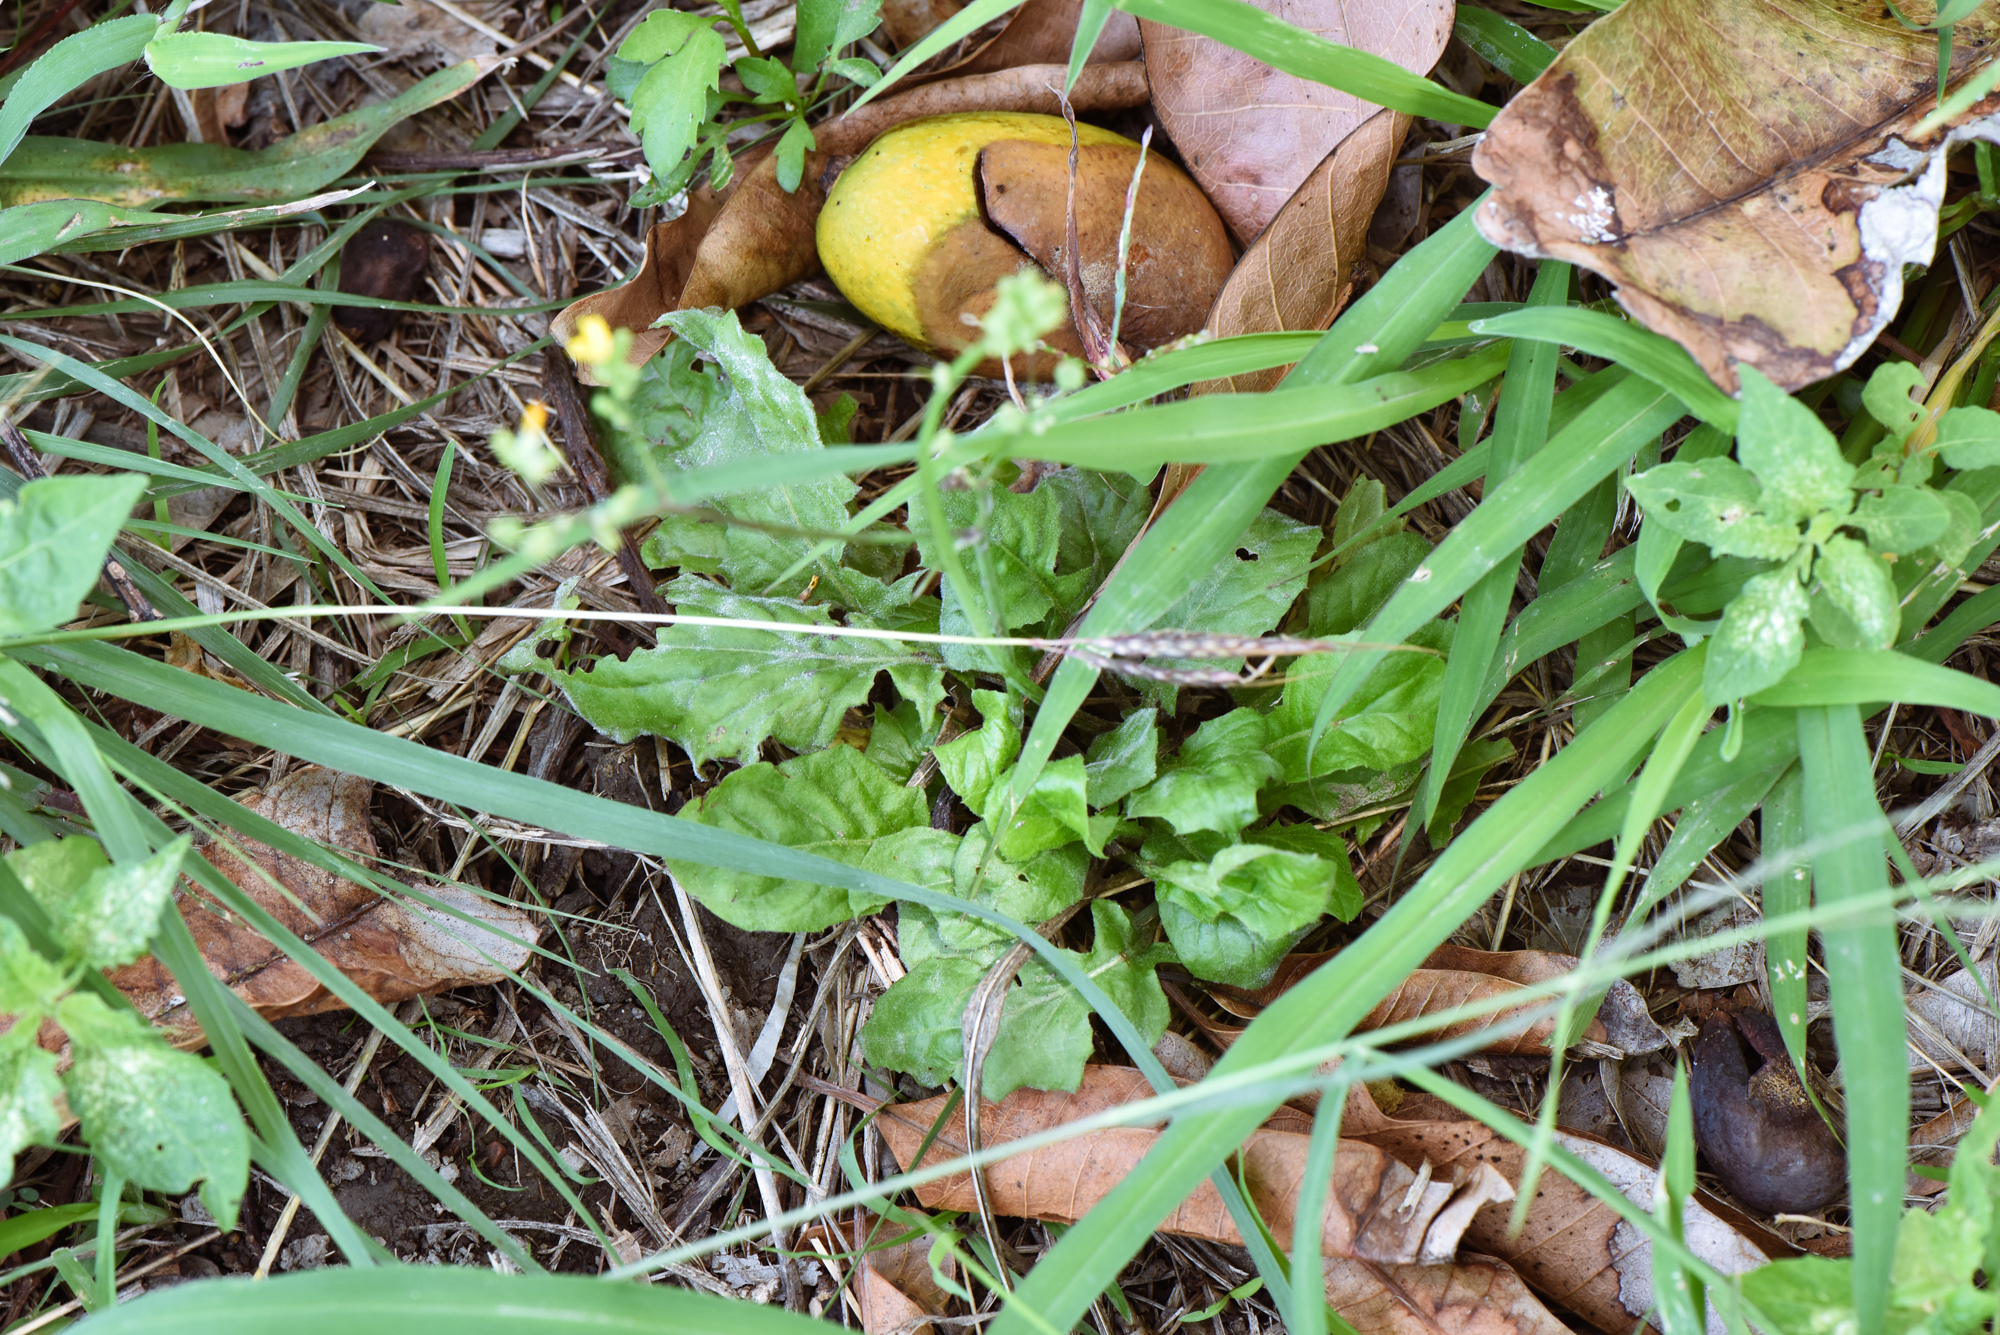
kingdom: Plantae
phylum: Tracheophyta
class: Magnoliopsida
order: Asterales
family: Asteraceae
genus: Youngia
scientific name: Youngia japonica
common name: Oriental false hawksbeard
